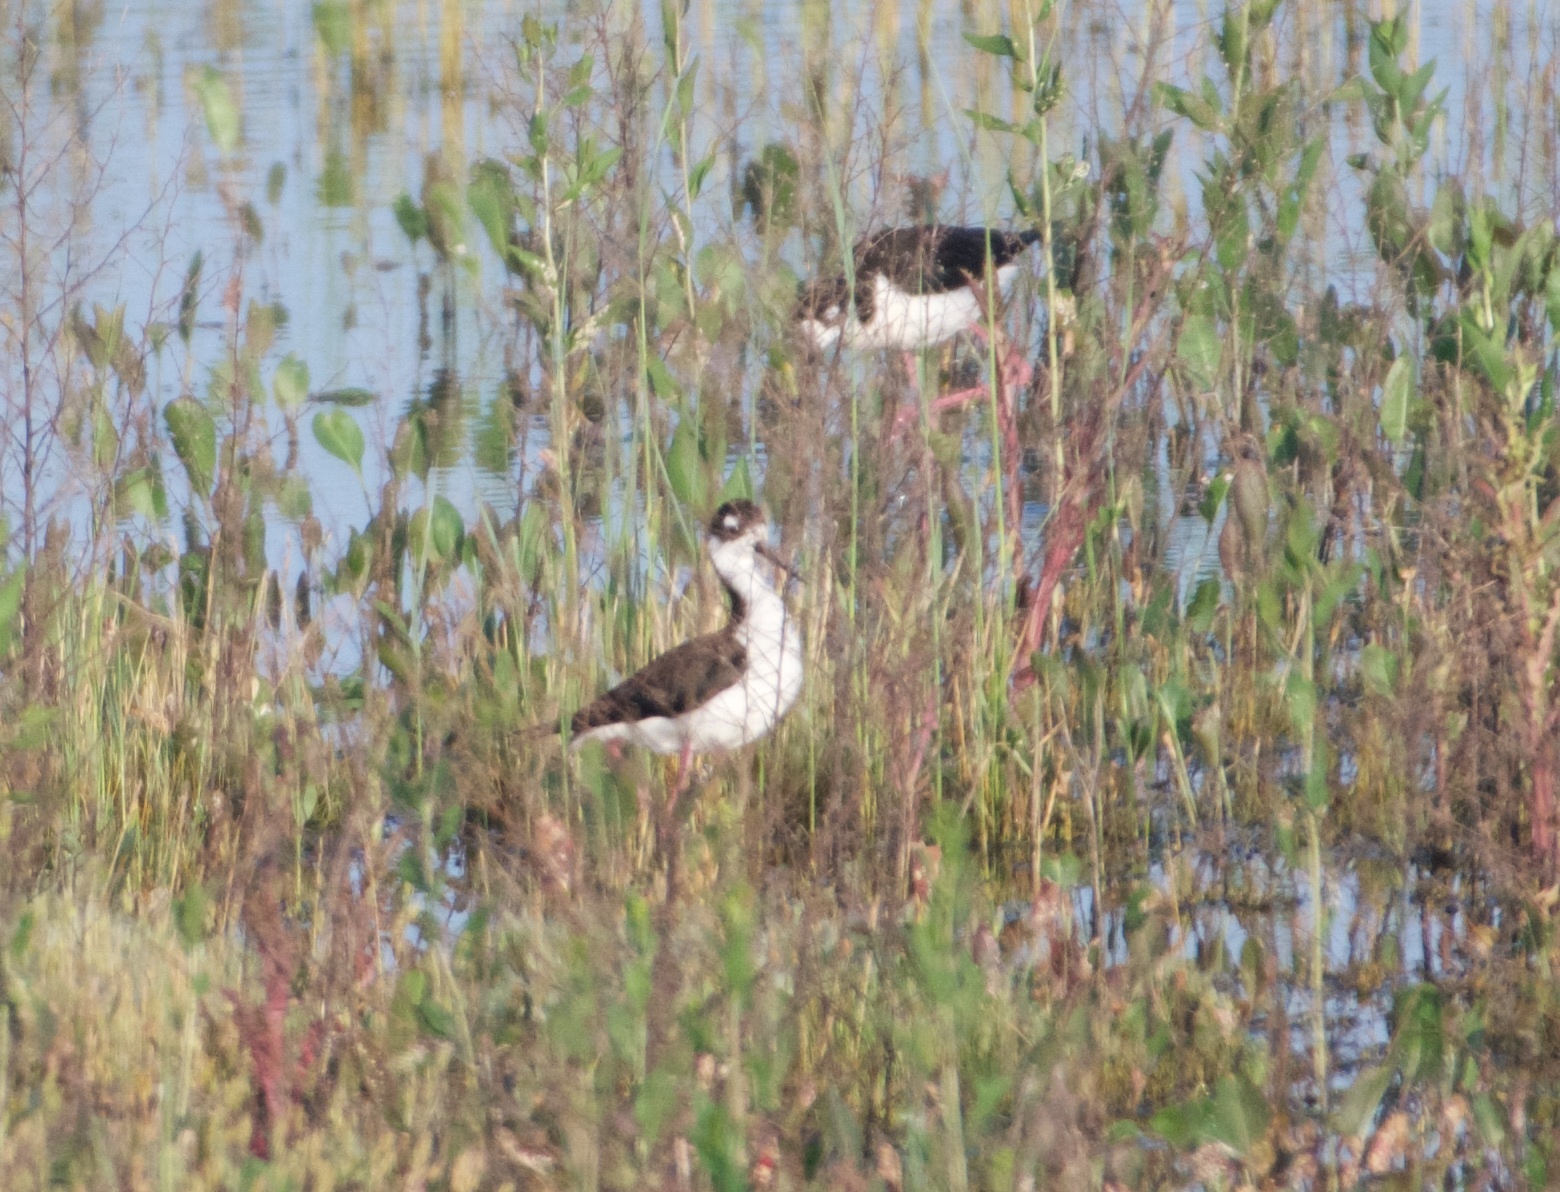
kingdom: Animalia
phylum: Chordata
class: Aves
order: Charadriiformes
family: Recurvirostridae
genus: Himantopus
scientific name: Himantopus mexicanus
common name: Black-necked stilt
